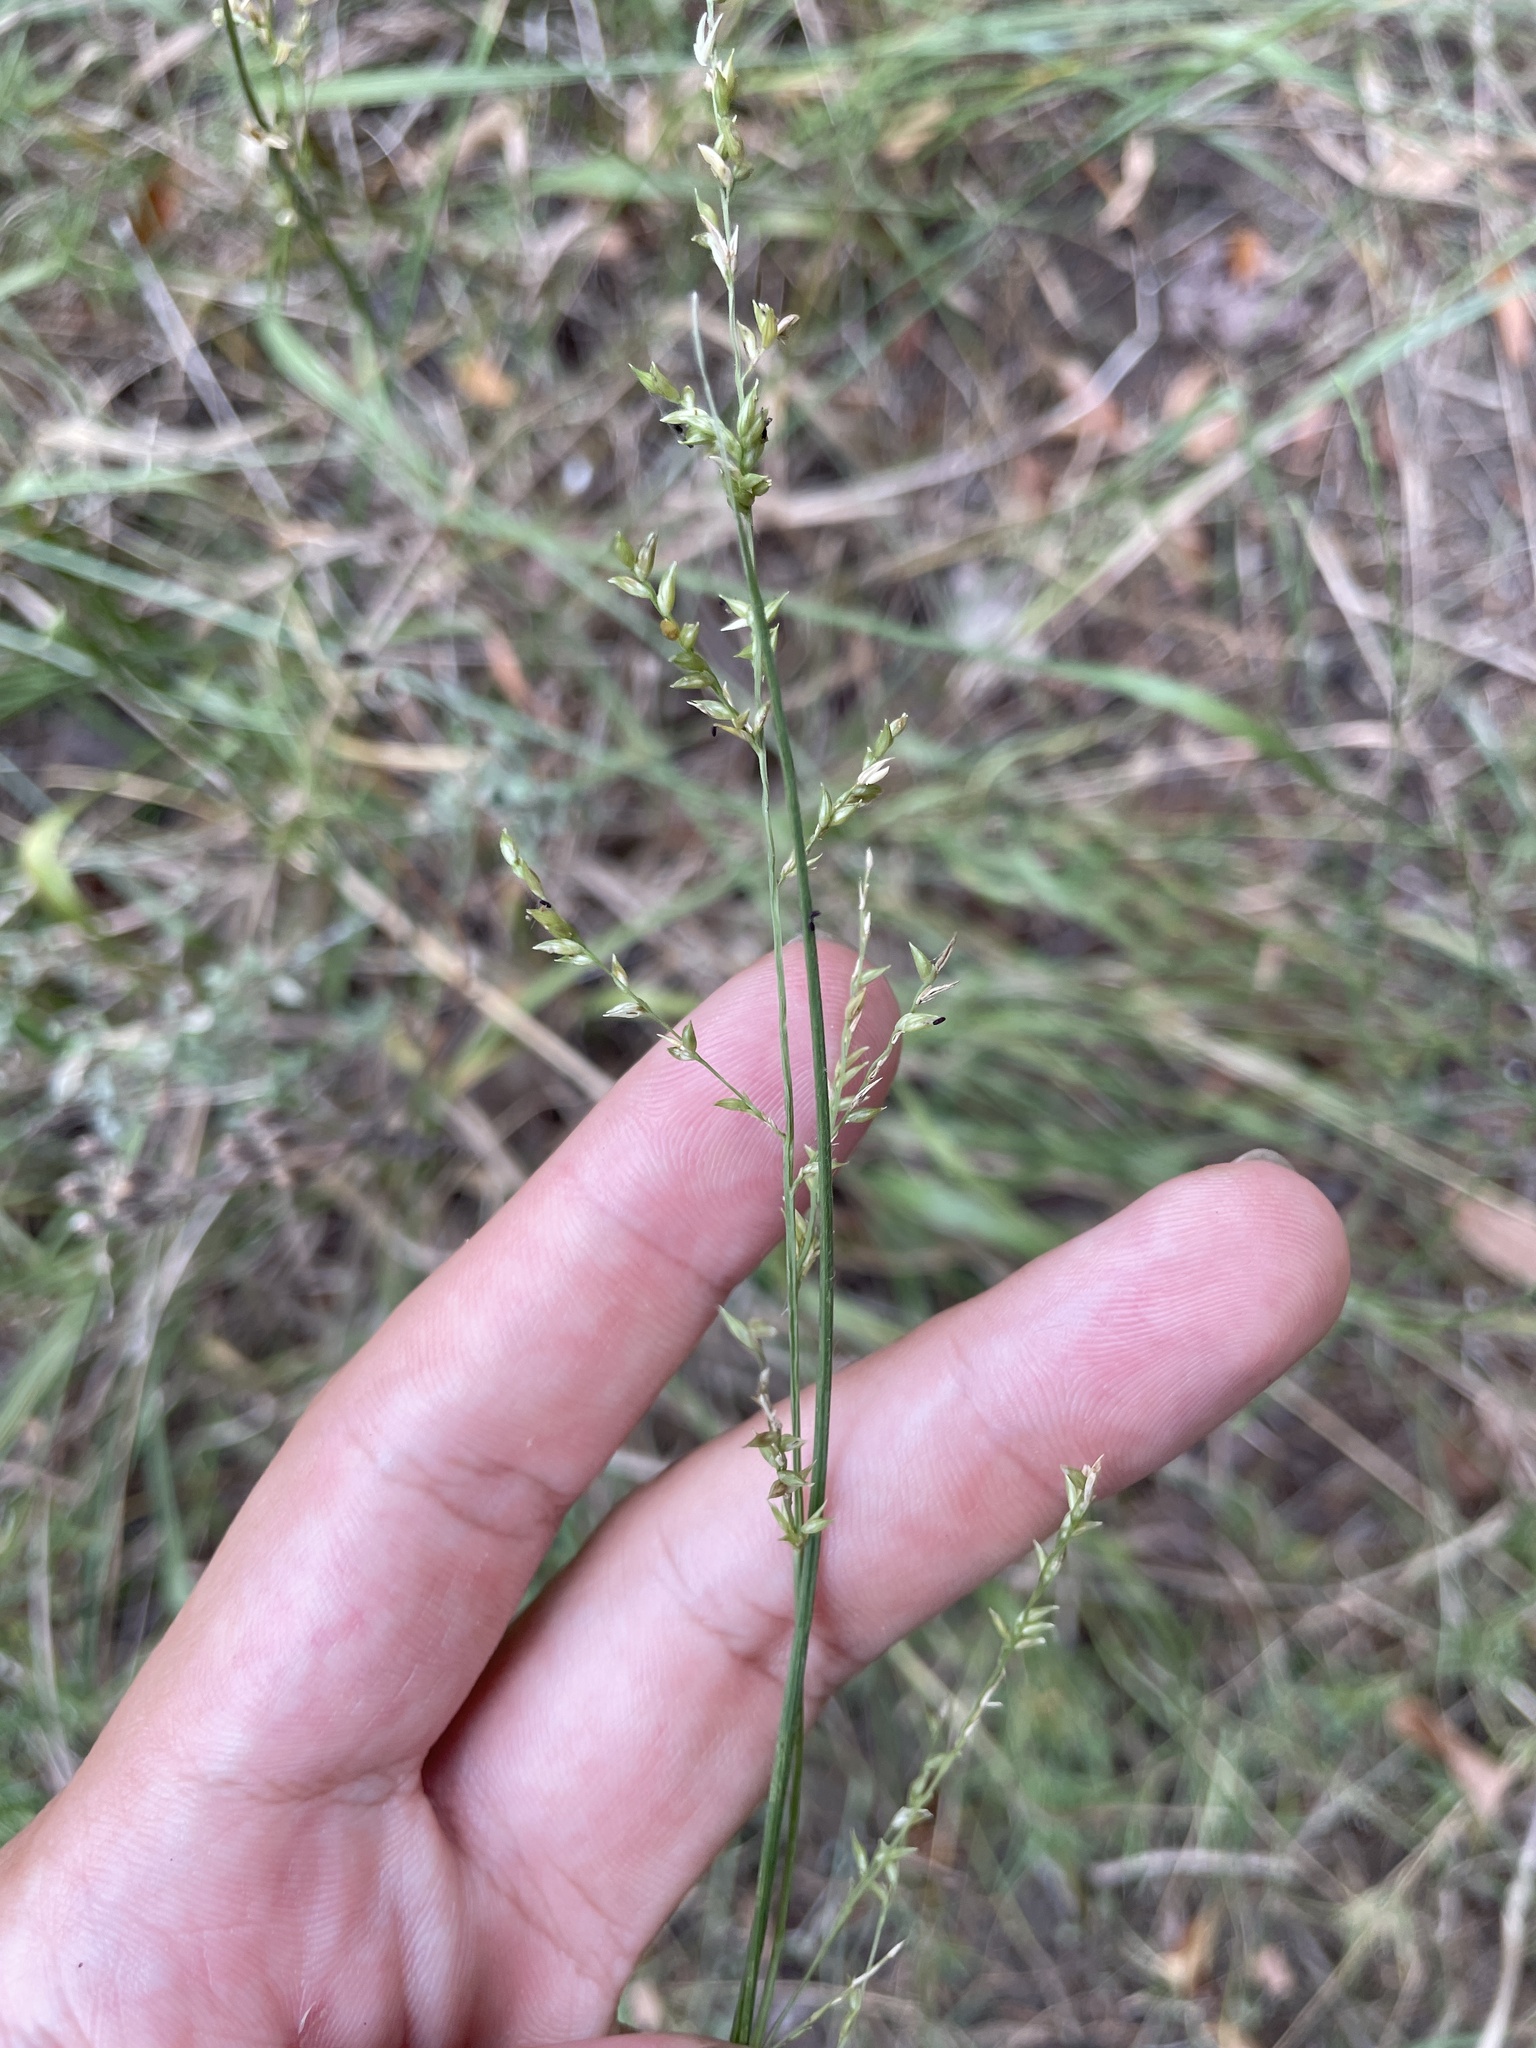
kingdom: Plantae
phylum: Tracheophyta
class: Liliopsida
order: Poales
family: Poaceae
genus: Coleataenia
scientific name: Coleataenia anceps
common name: Beaked panic grass
